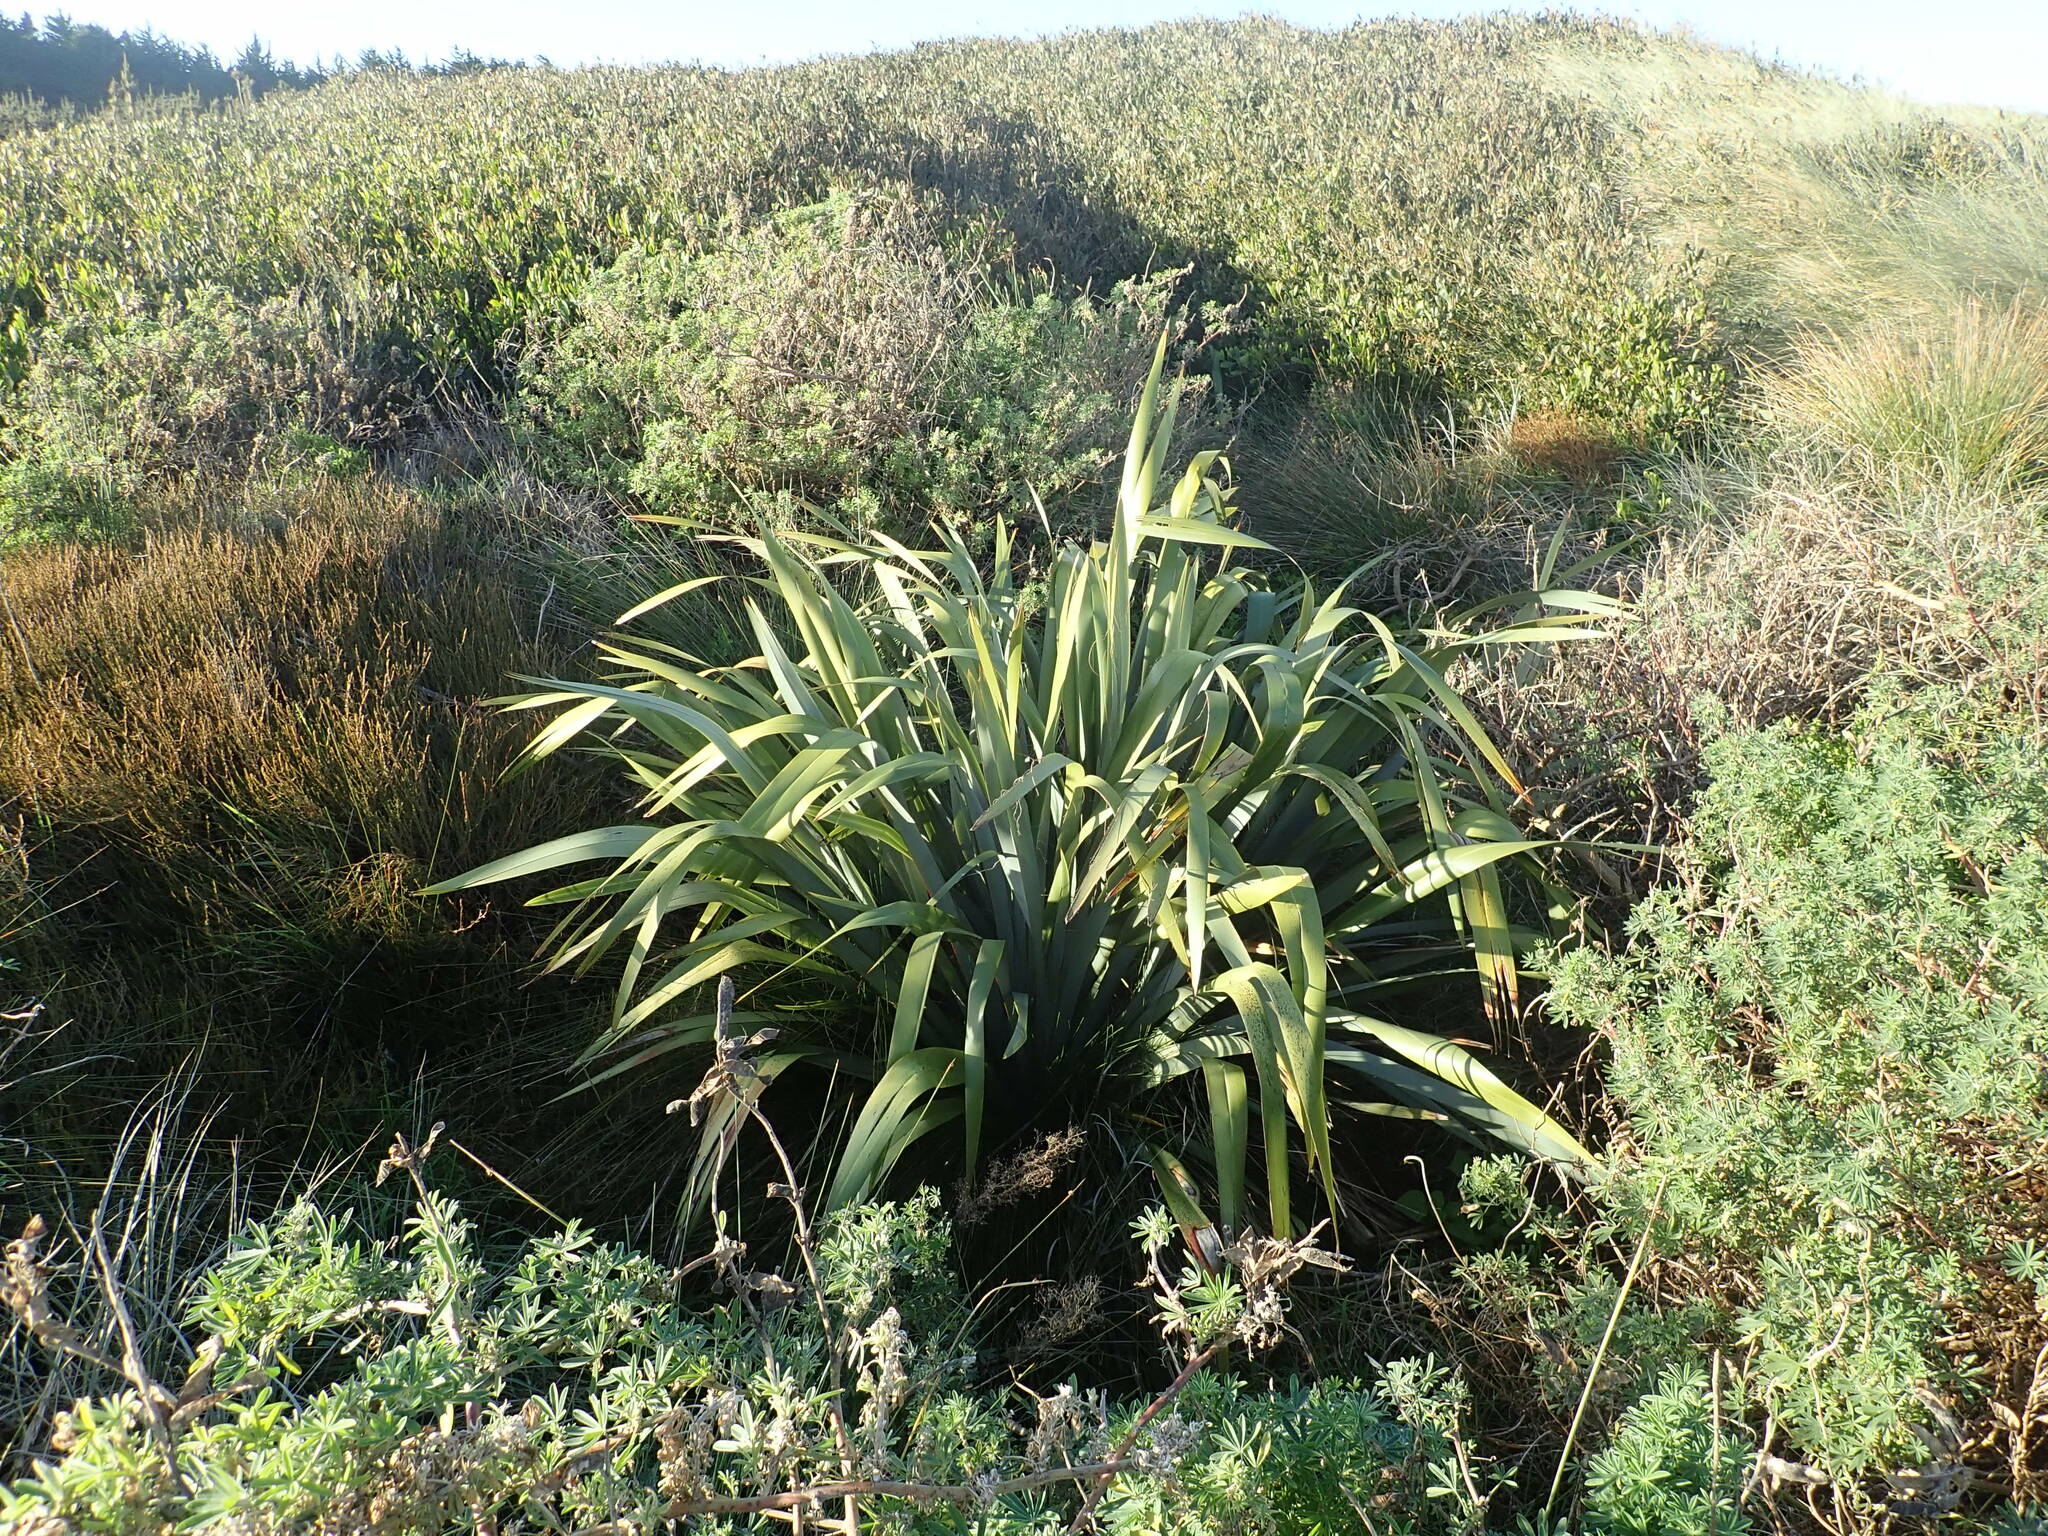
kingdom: Plantae
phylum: Tracheophyta
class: Liliopsida
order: Asparagales
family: Asphodelaceae
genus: Phormium
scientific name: Phormium tenax
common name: New zealand flax
